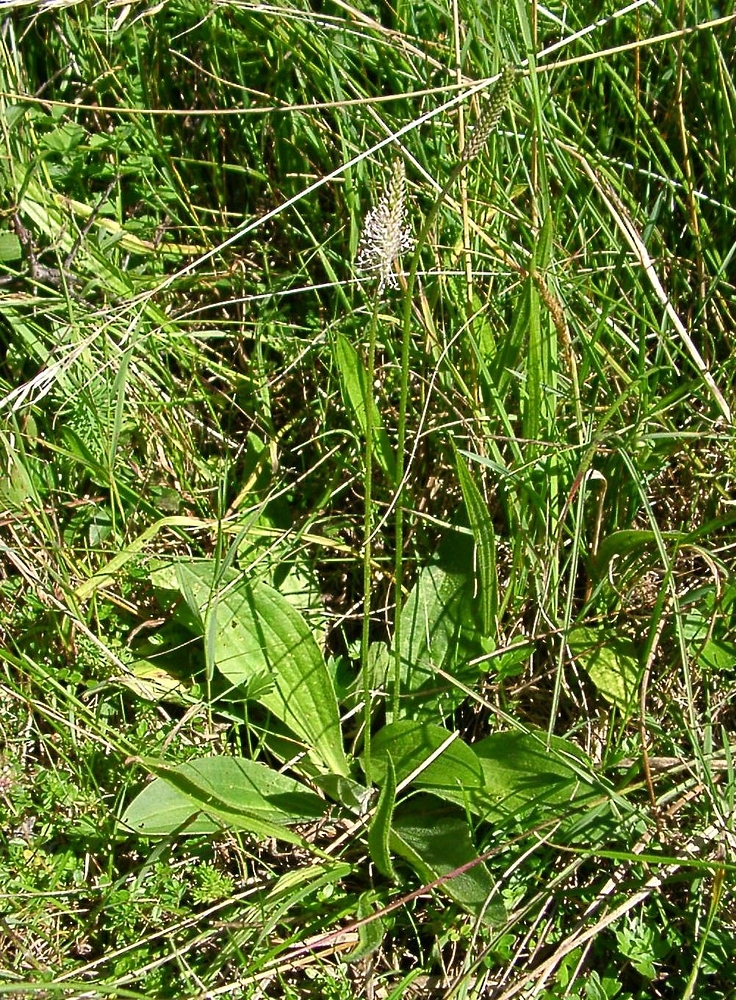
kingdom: Plantae
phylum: Tracheophyta
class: Magnoliopsida
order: Lamiales
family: Plantaginaceae
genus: Plantago
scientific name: Plantago media
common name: Hoary plantain
